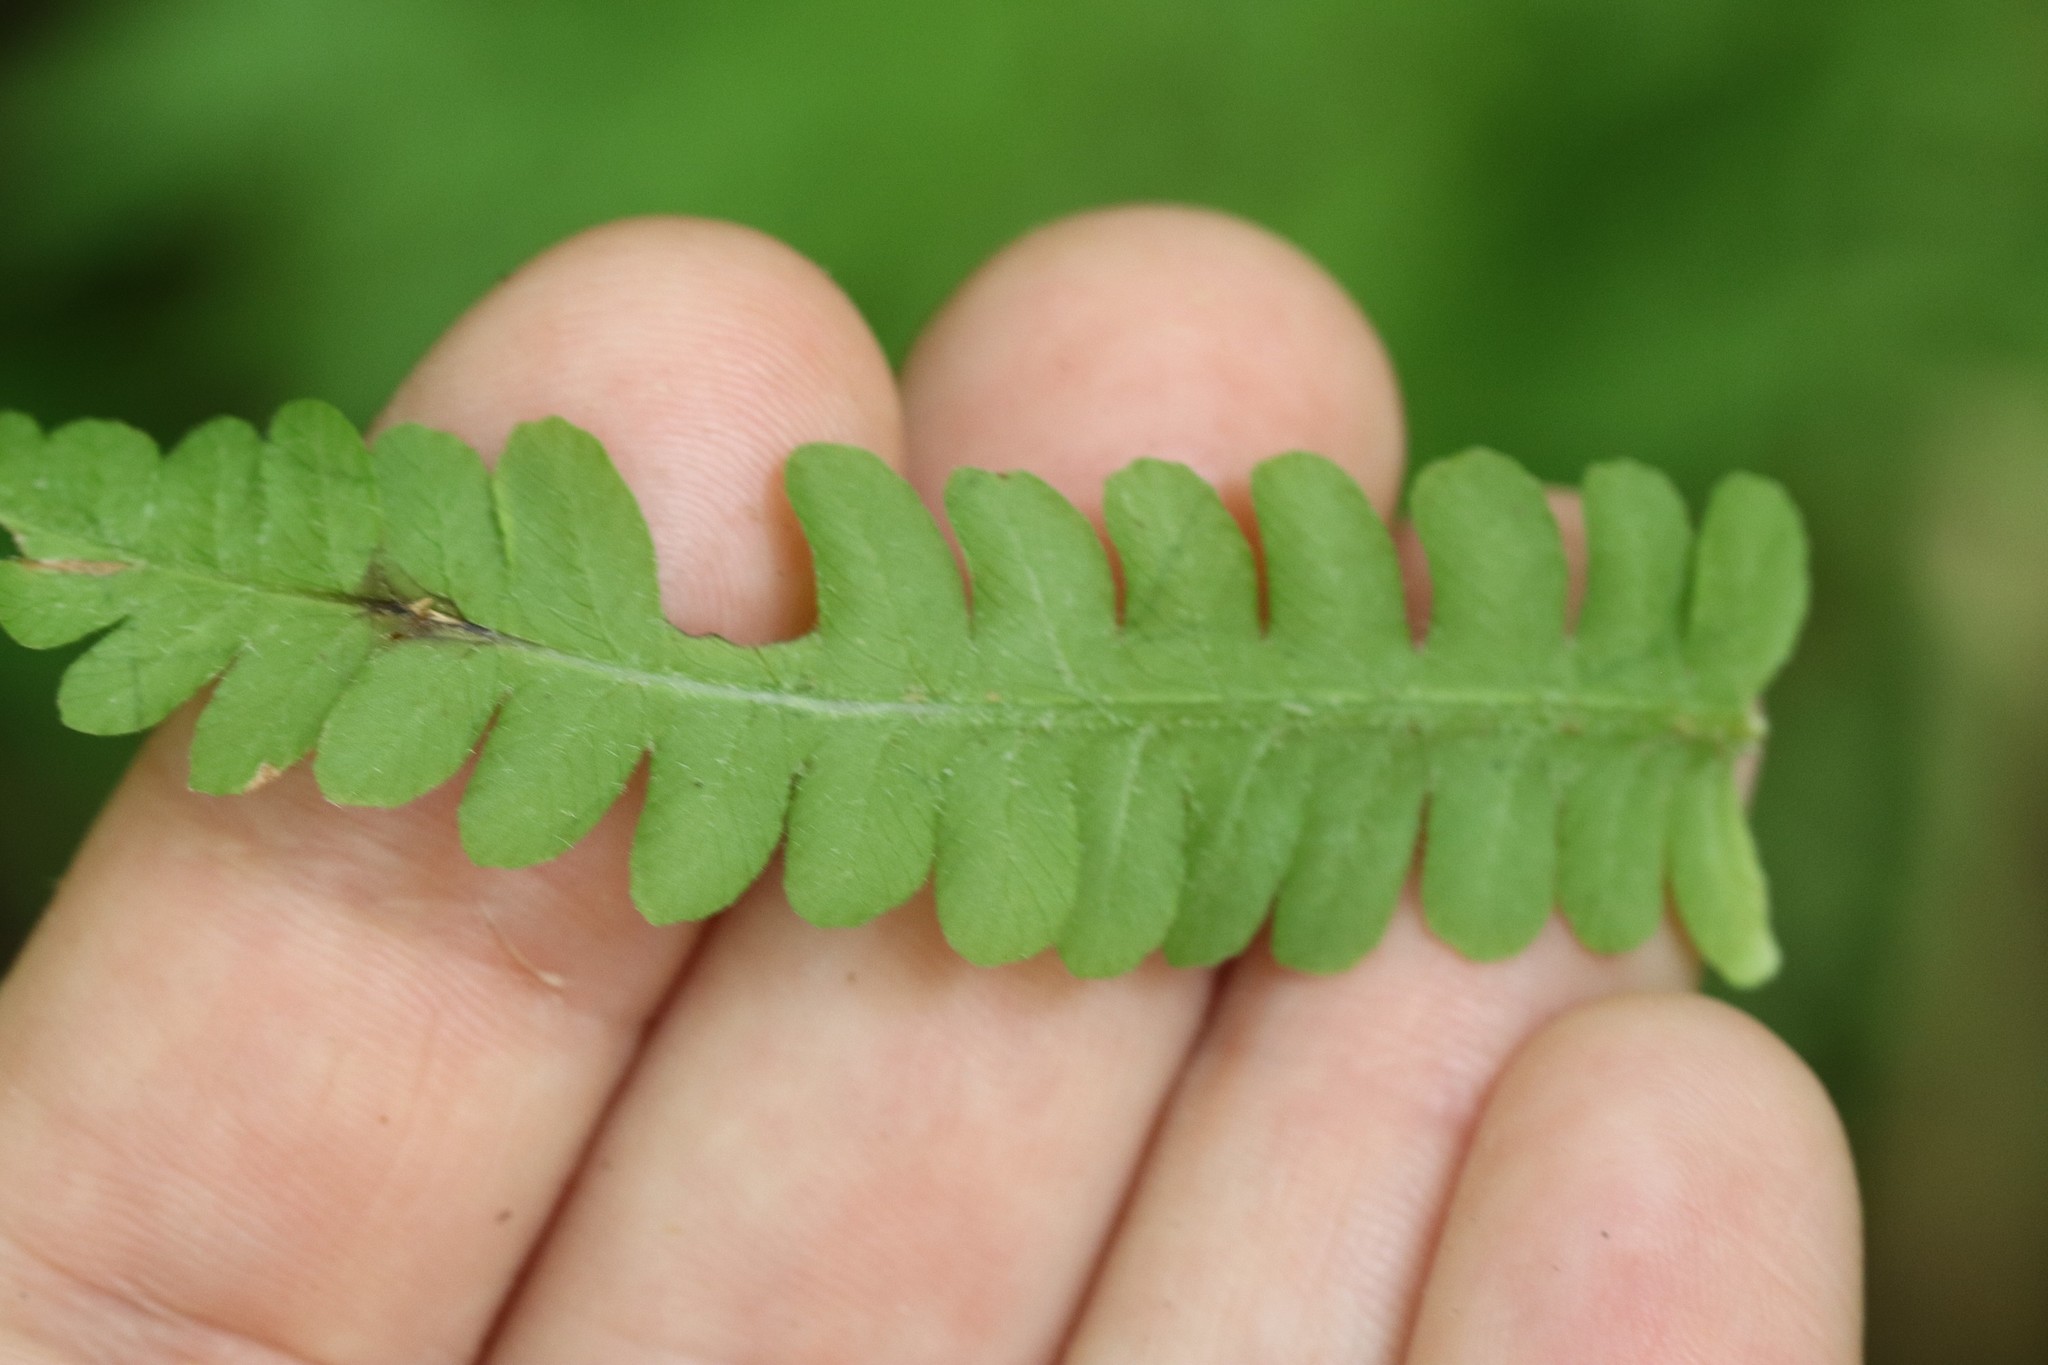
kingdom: Plantae
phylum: Tracheophyta
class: Polypodiopsida
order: Polypodiales
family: Onocleaceae
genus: Matteuccia
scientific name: Matteuccia struthiopteris
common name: Ostrich fern
